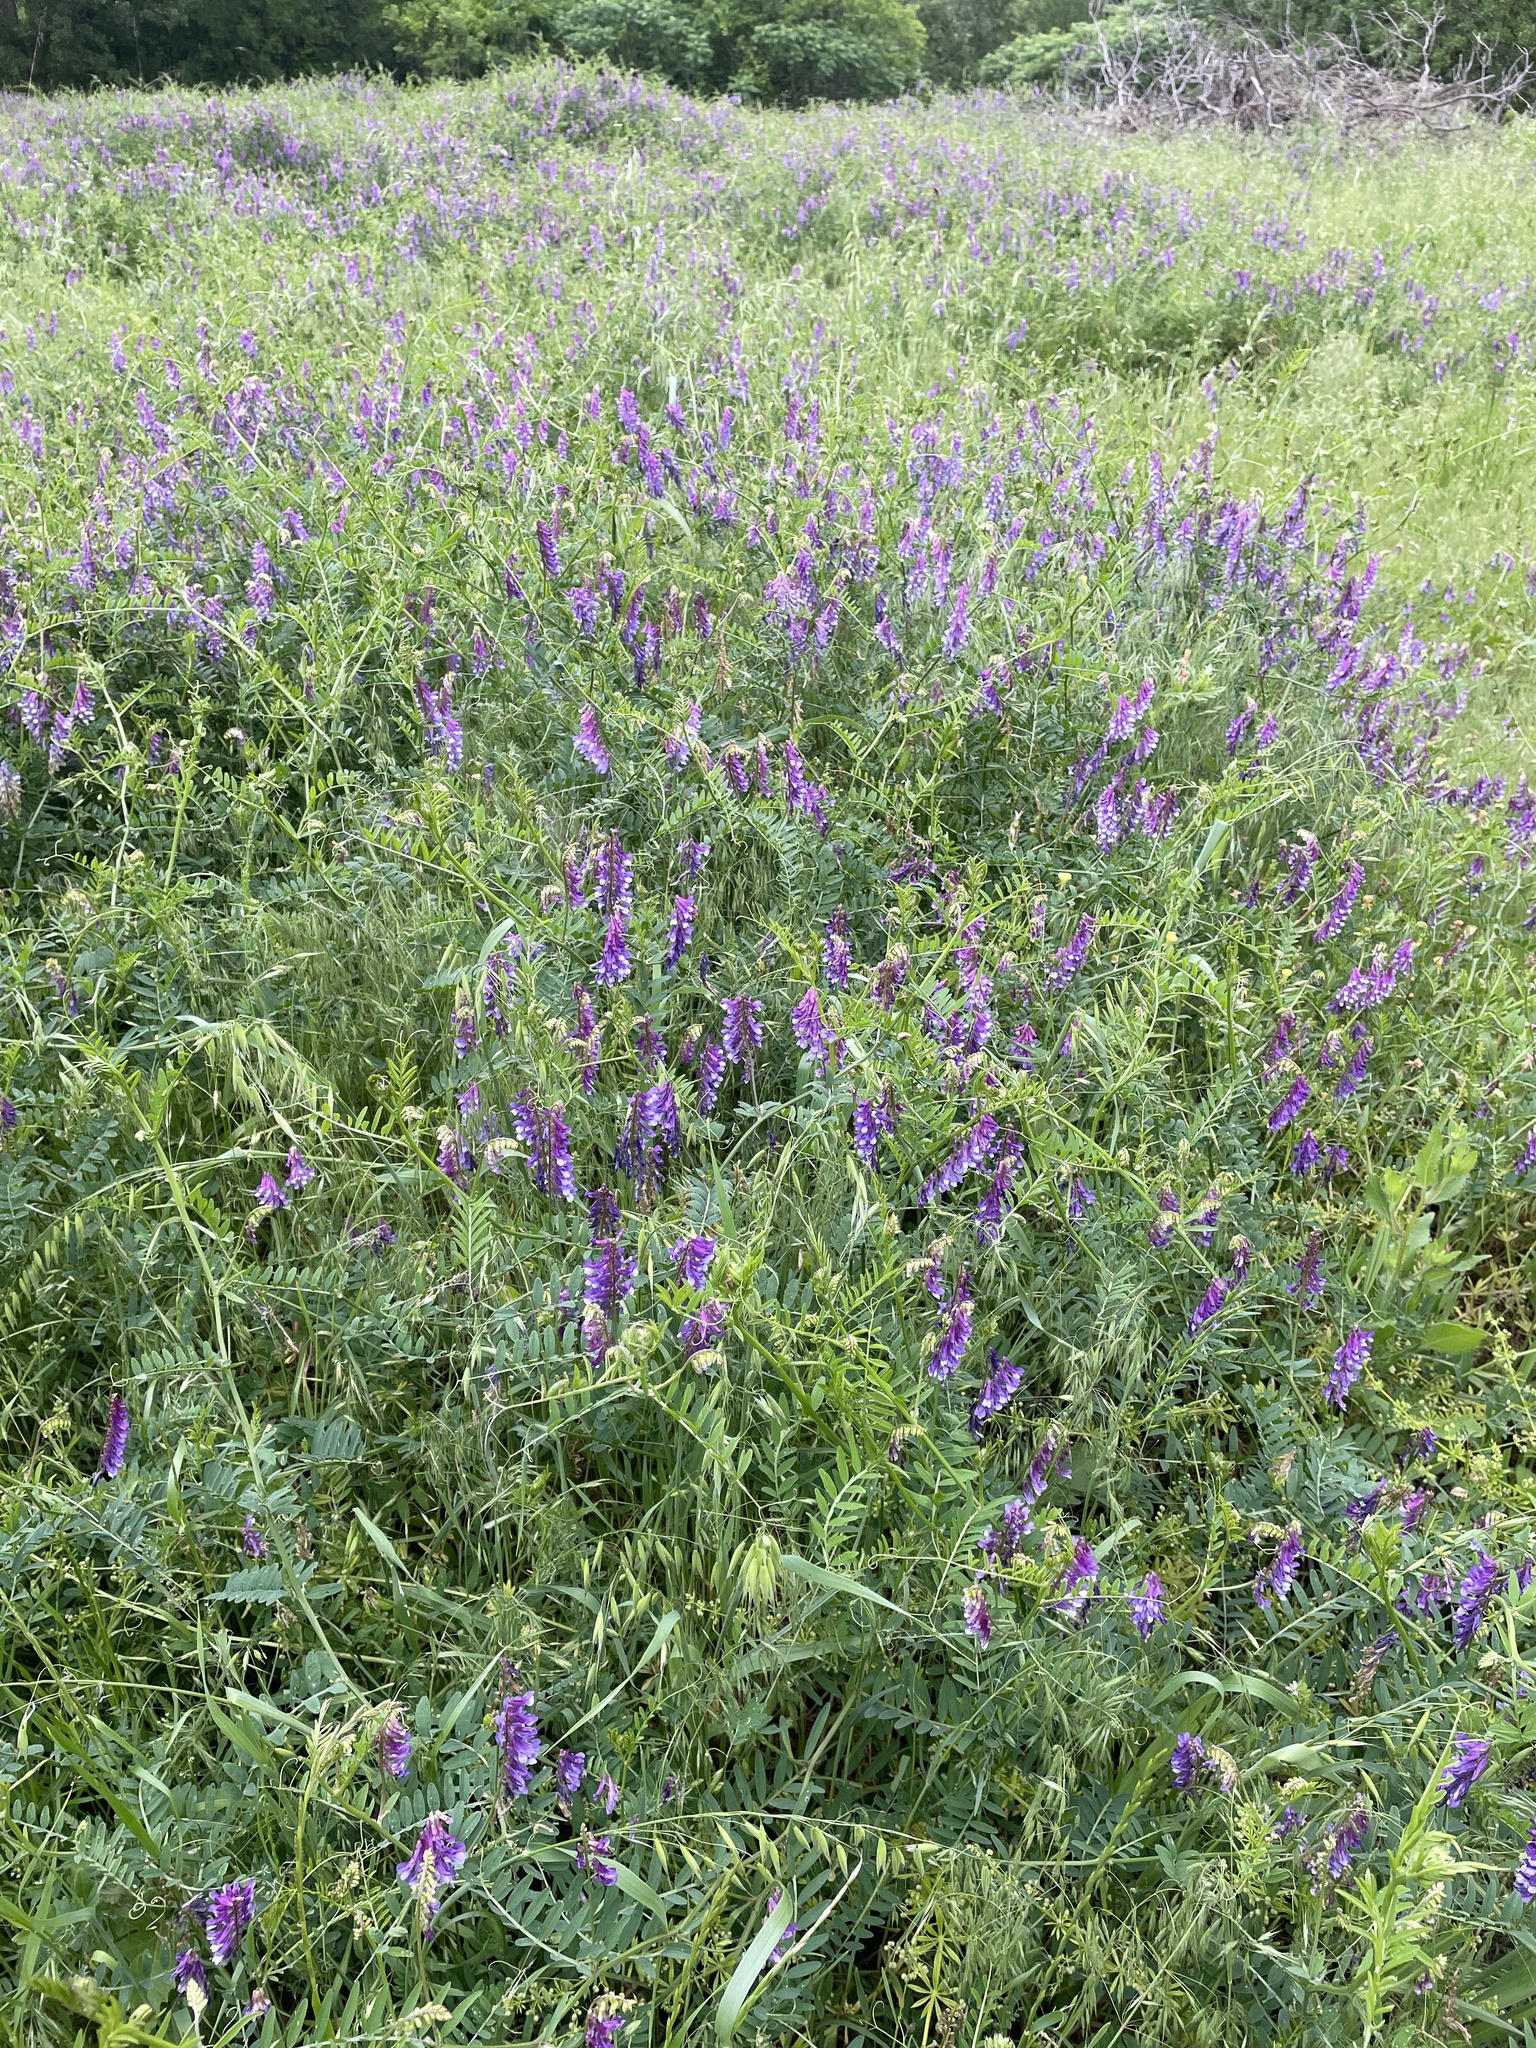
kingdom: Plantae
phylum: Tracheophyta
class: Magnoliopsida
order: Fabales
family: Fabaceae
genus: Vicia
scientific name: Vicia villosa
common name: Fodder vetch
